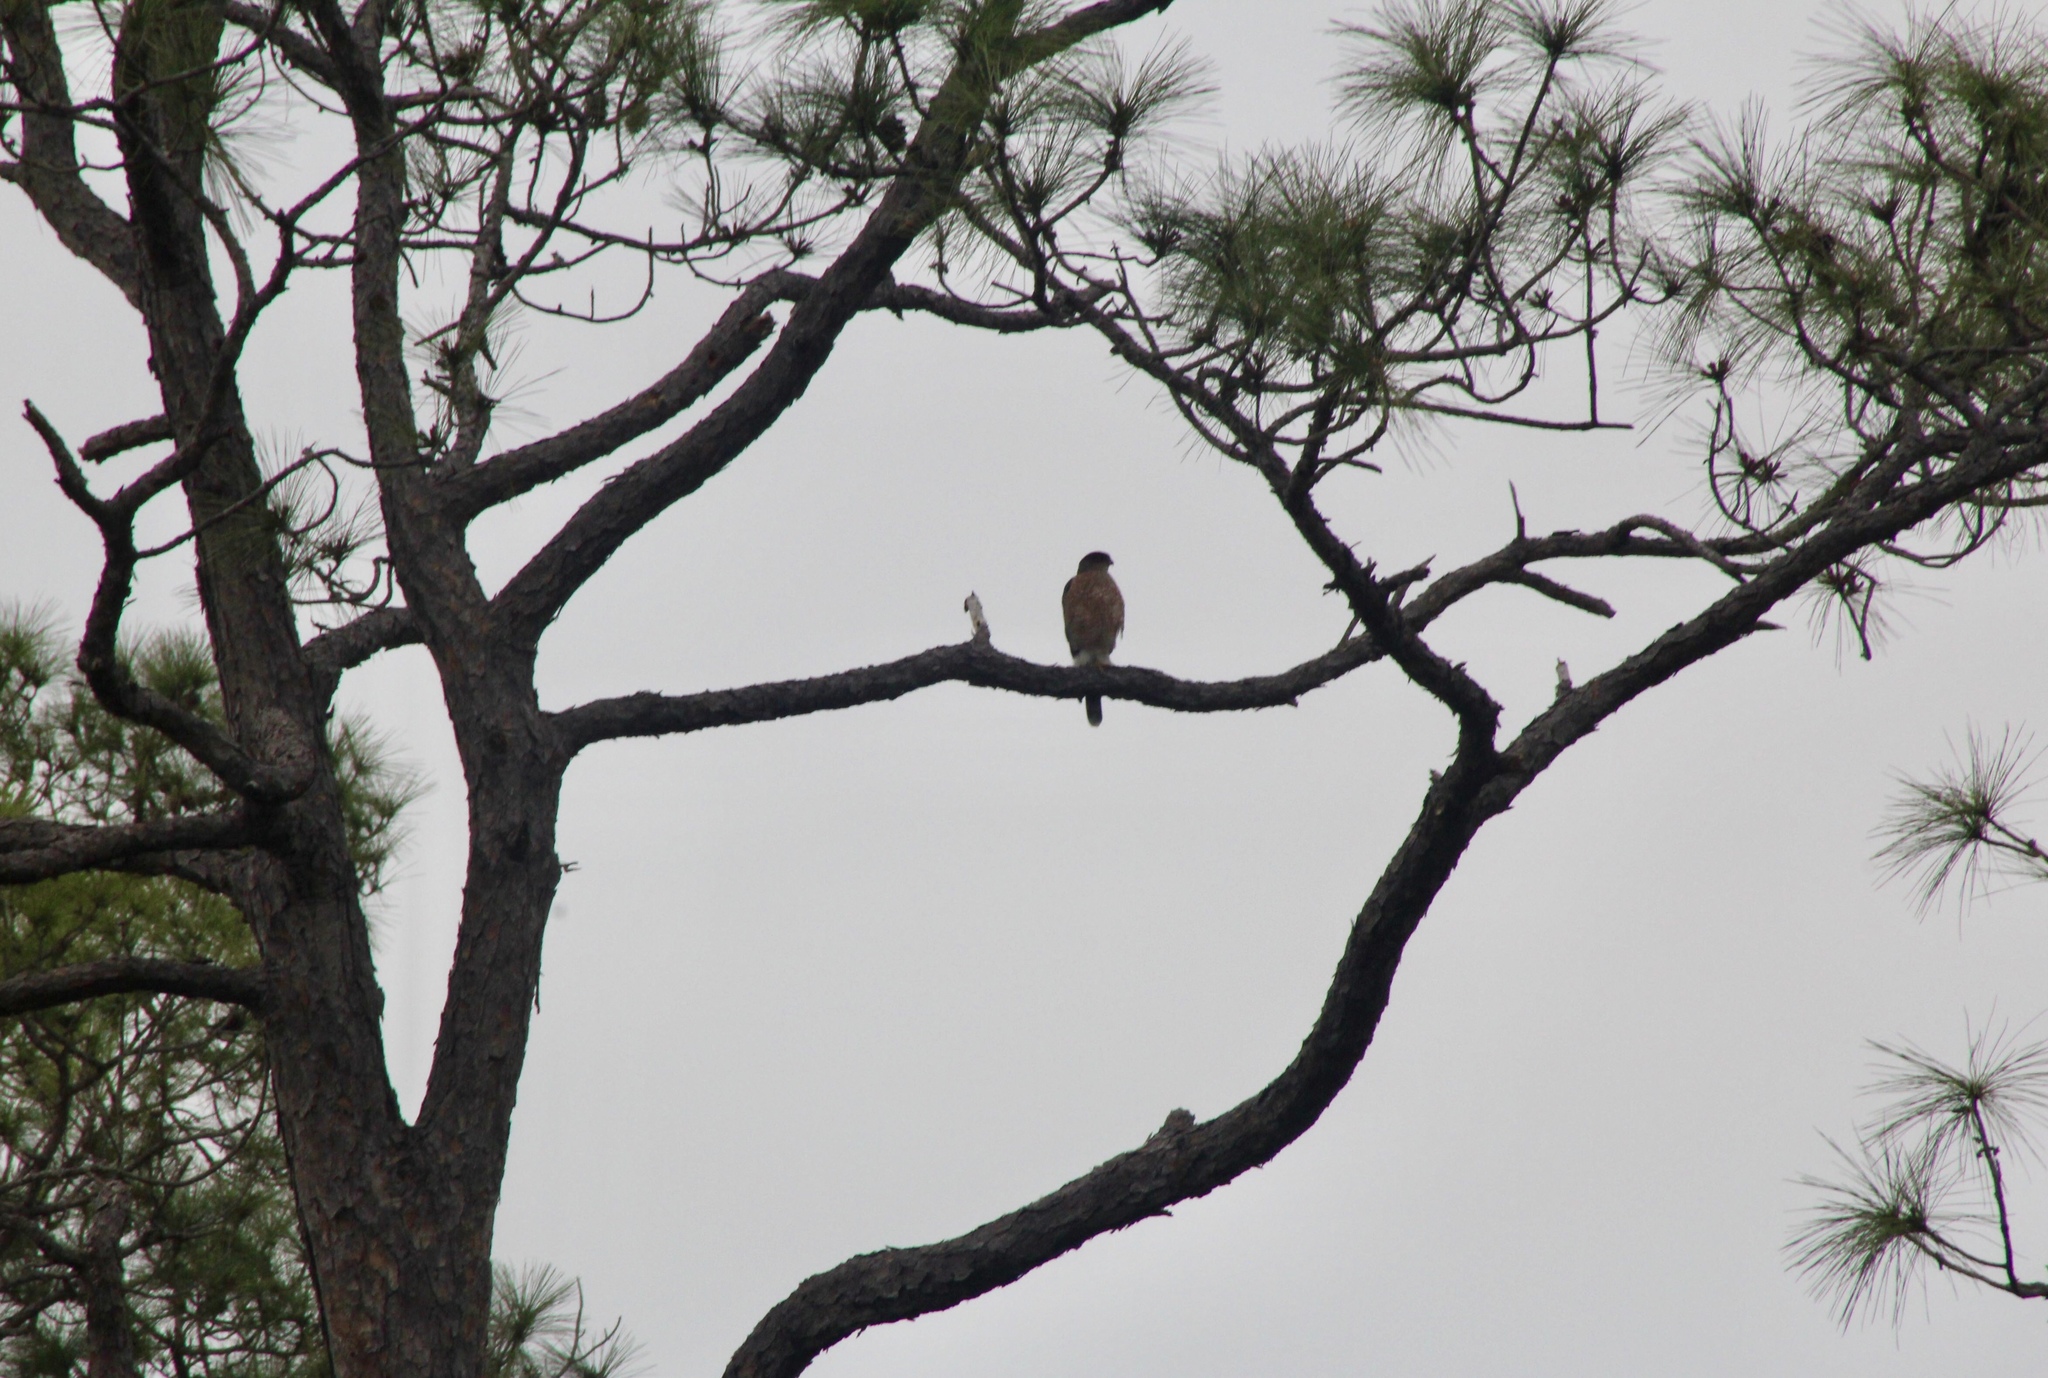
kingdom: Animalia
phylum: Chordata
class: Aves
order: Accipitriformes
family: Accipitridae
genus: Accipiter
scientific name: Accipiter cooperii
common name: Cooper's hawk
